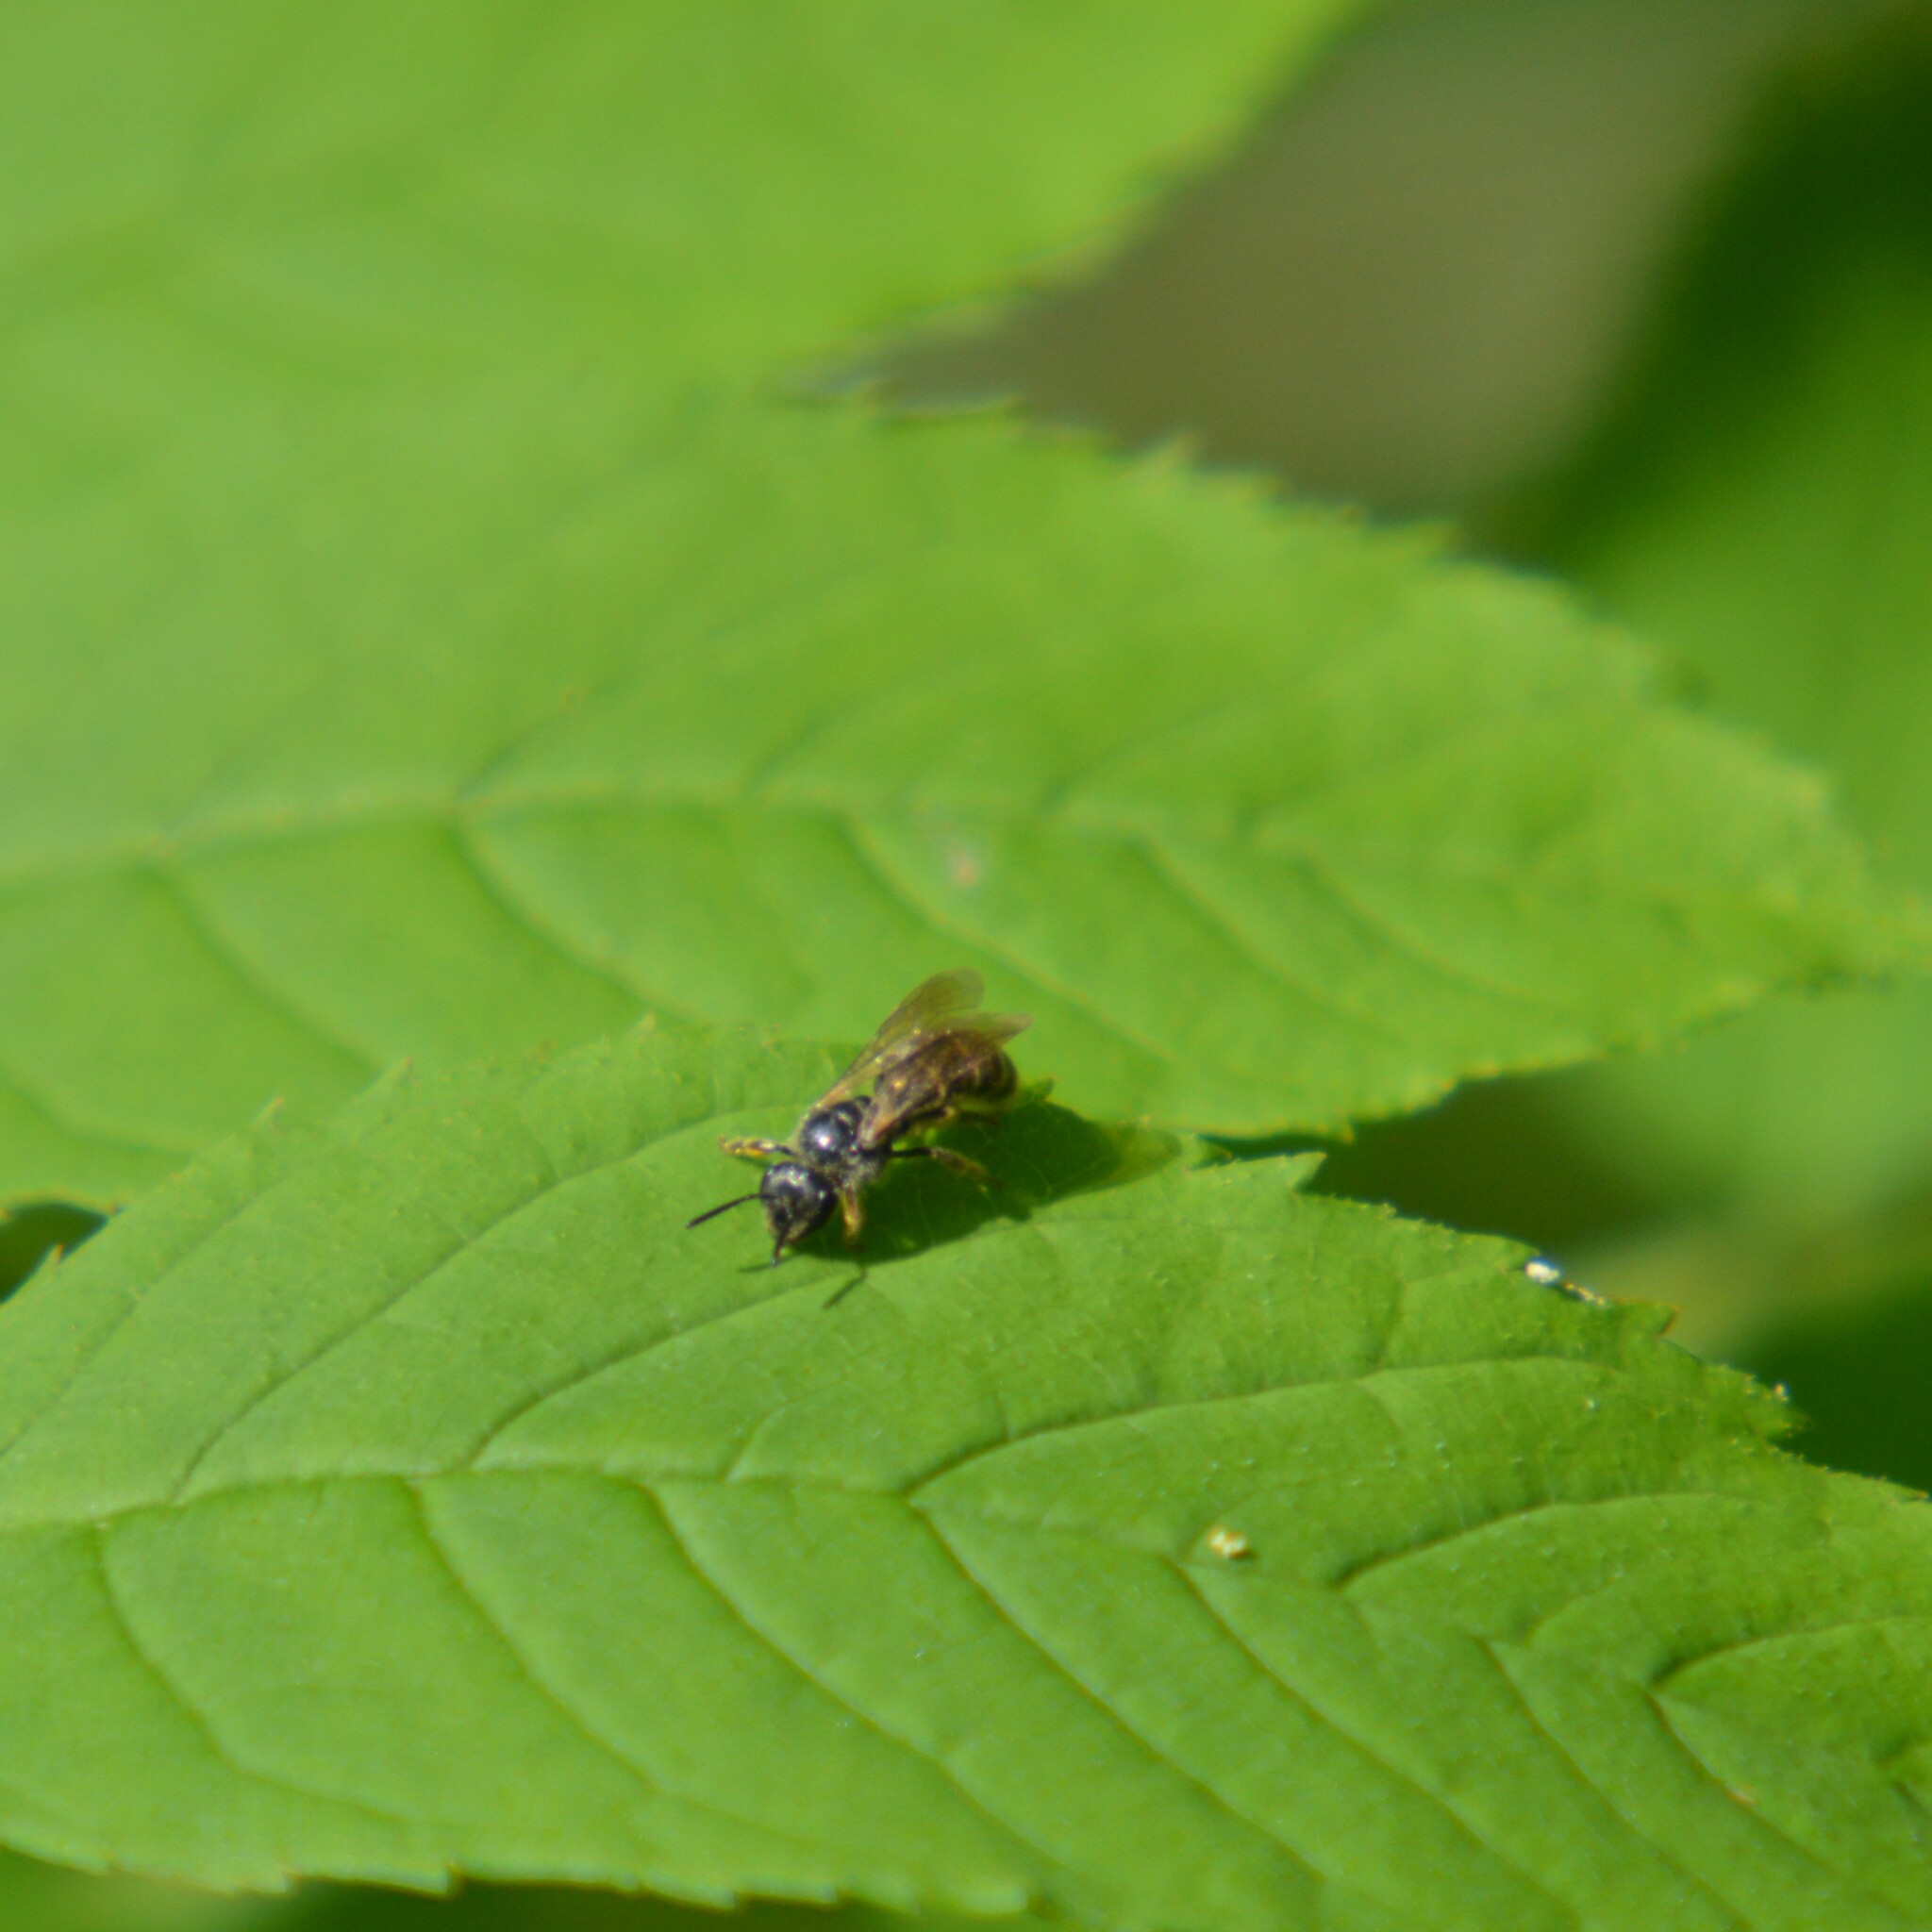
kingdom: Animalia
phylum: Arthropoda
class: Insecta
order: Hymenoptera
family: Halictidae
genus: Lasioglossum
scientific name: Lasioglossum
